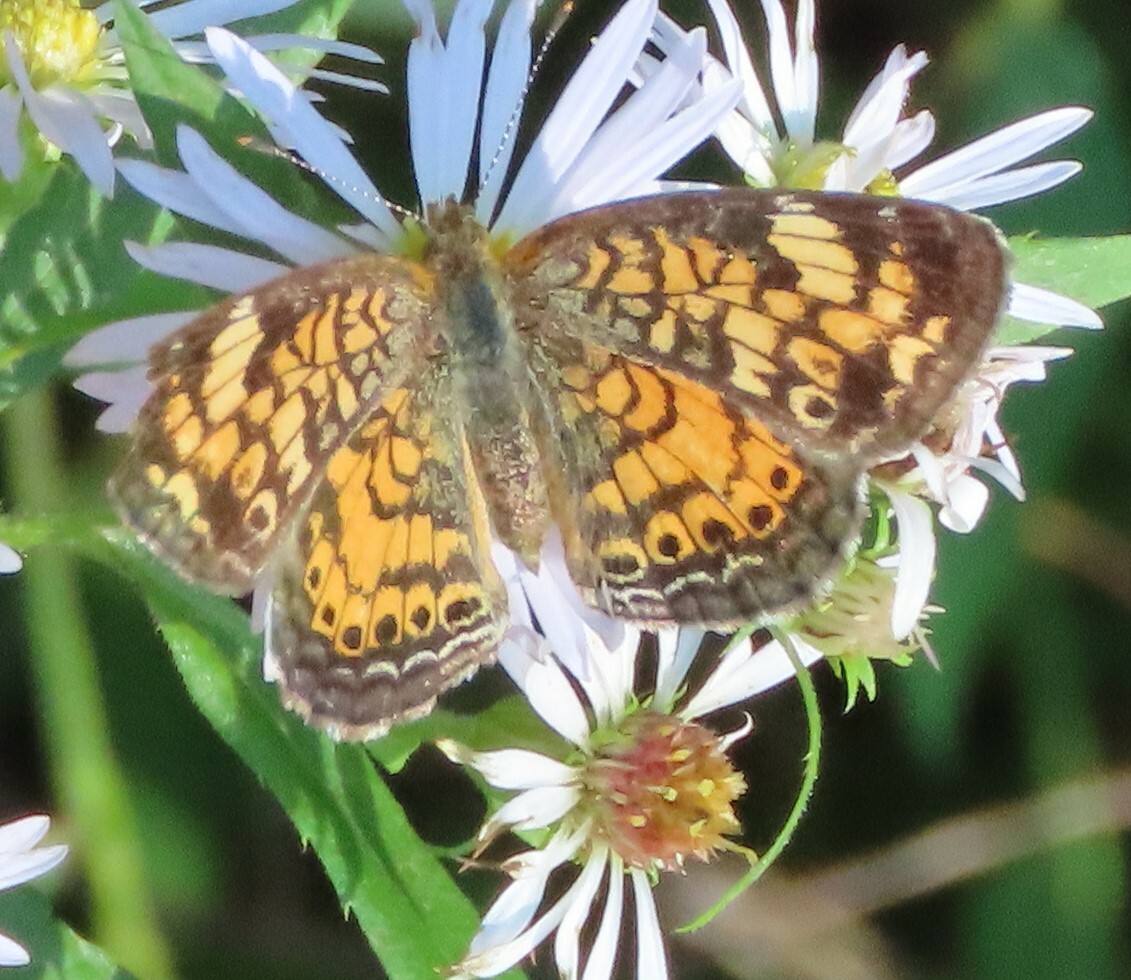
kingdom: Animalia
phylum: Arthropoda
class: Insecta
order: Lepidoptera
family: Nymphalidae
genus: Phyciodes
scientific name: Phyciodes tharos
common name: Pearl crescent
